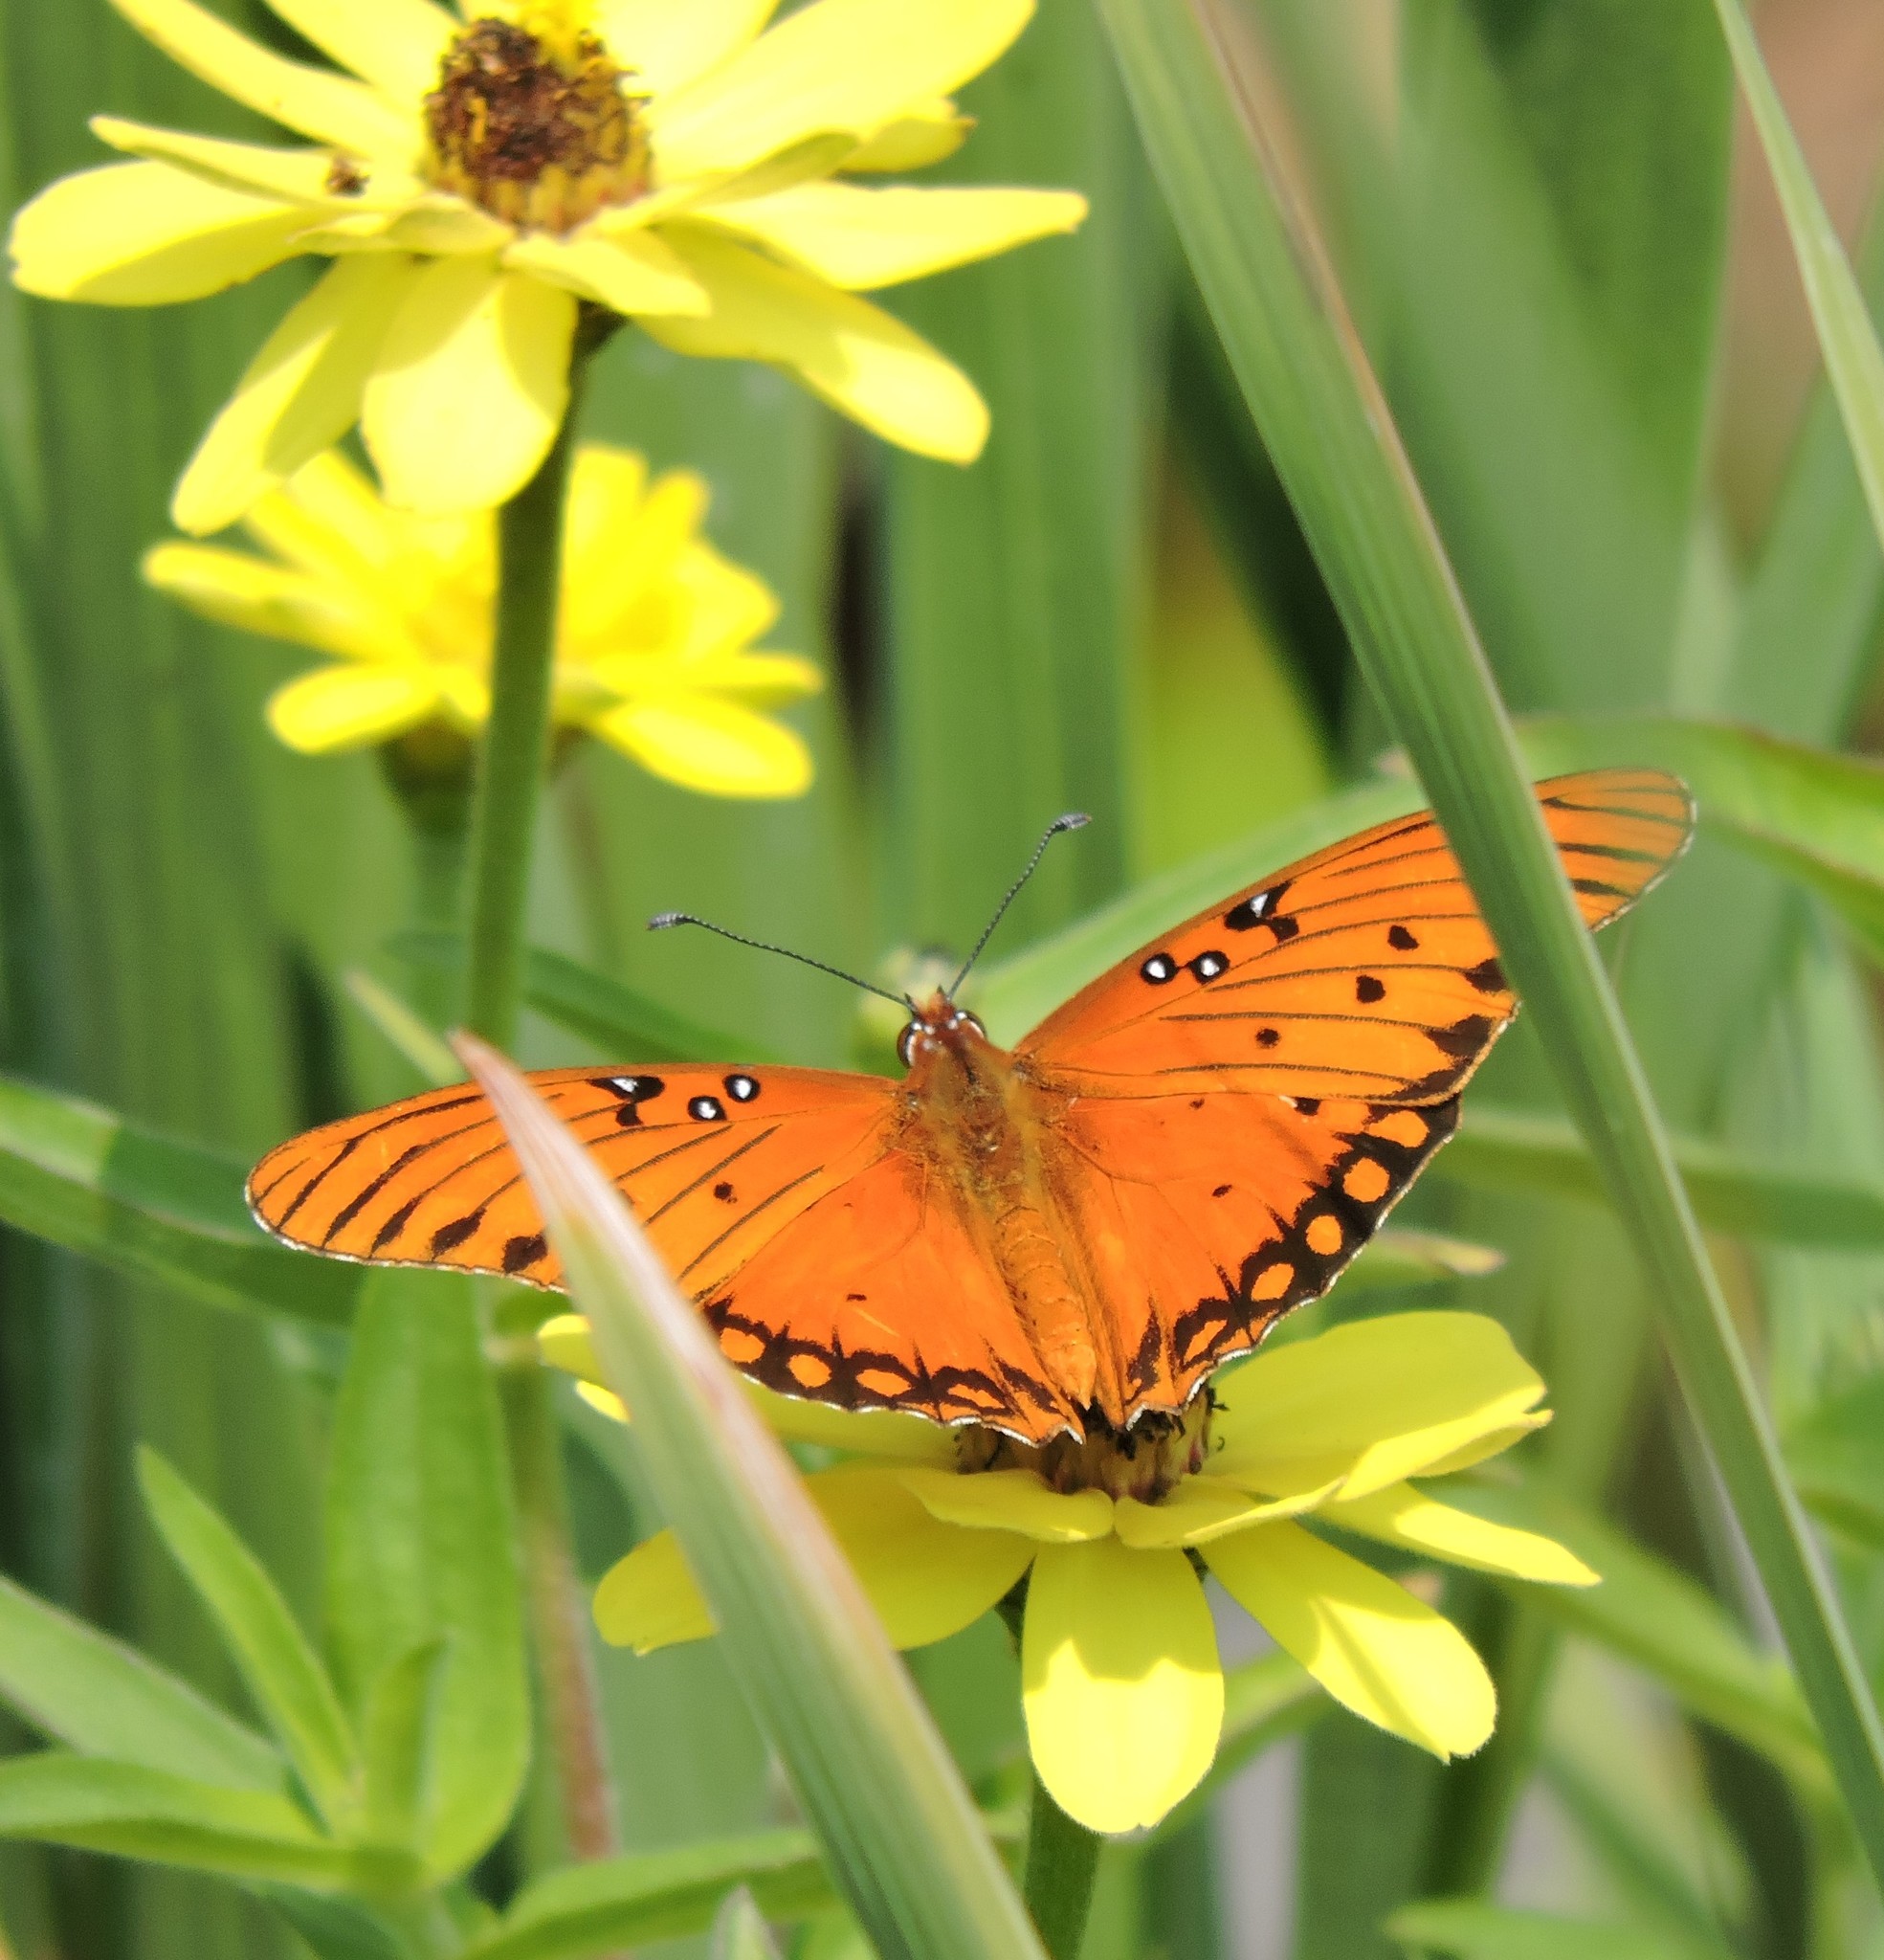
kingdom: Animalia
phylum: Arthropoda
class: Insecta
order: Lepidoptera
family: Nymphalidae
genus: Dione
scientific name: Dione vanillae
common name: Gulf fritillary
